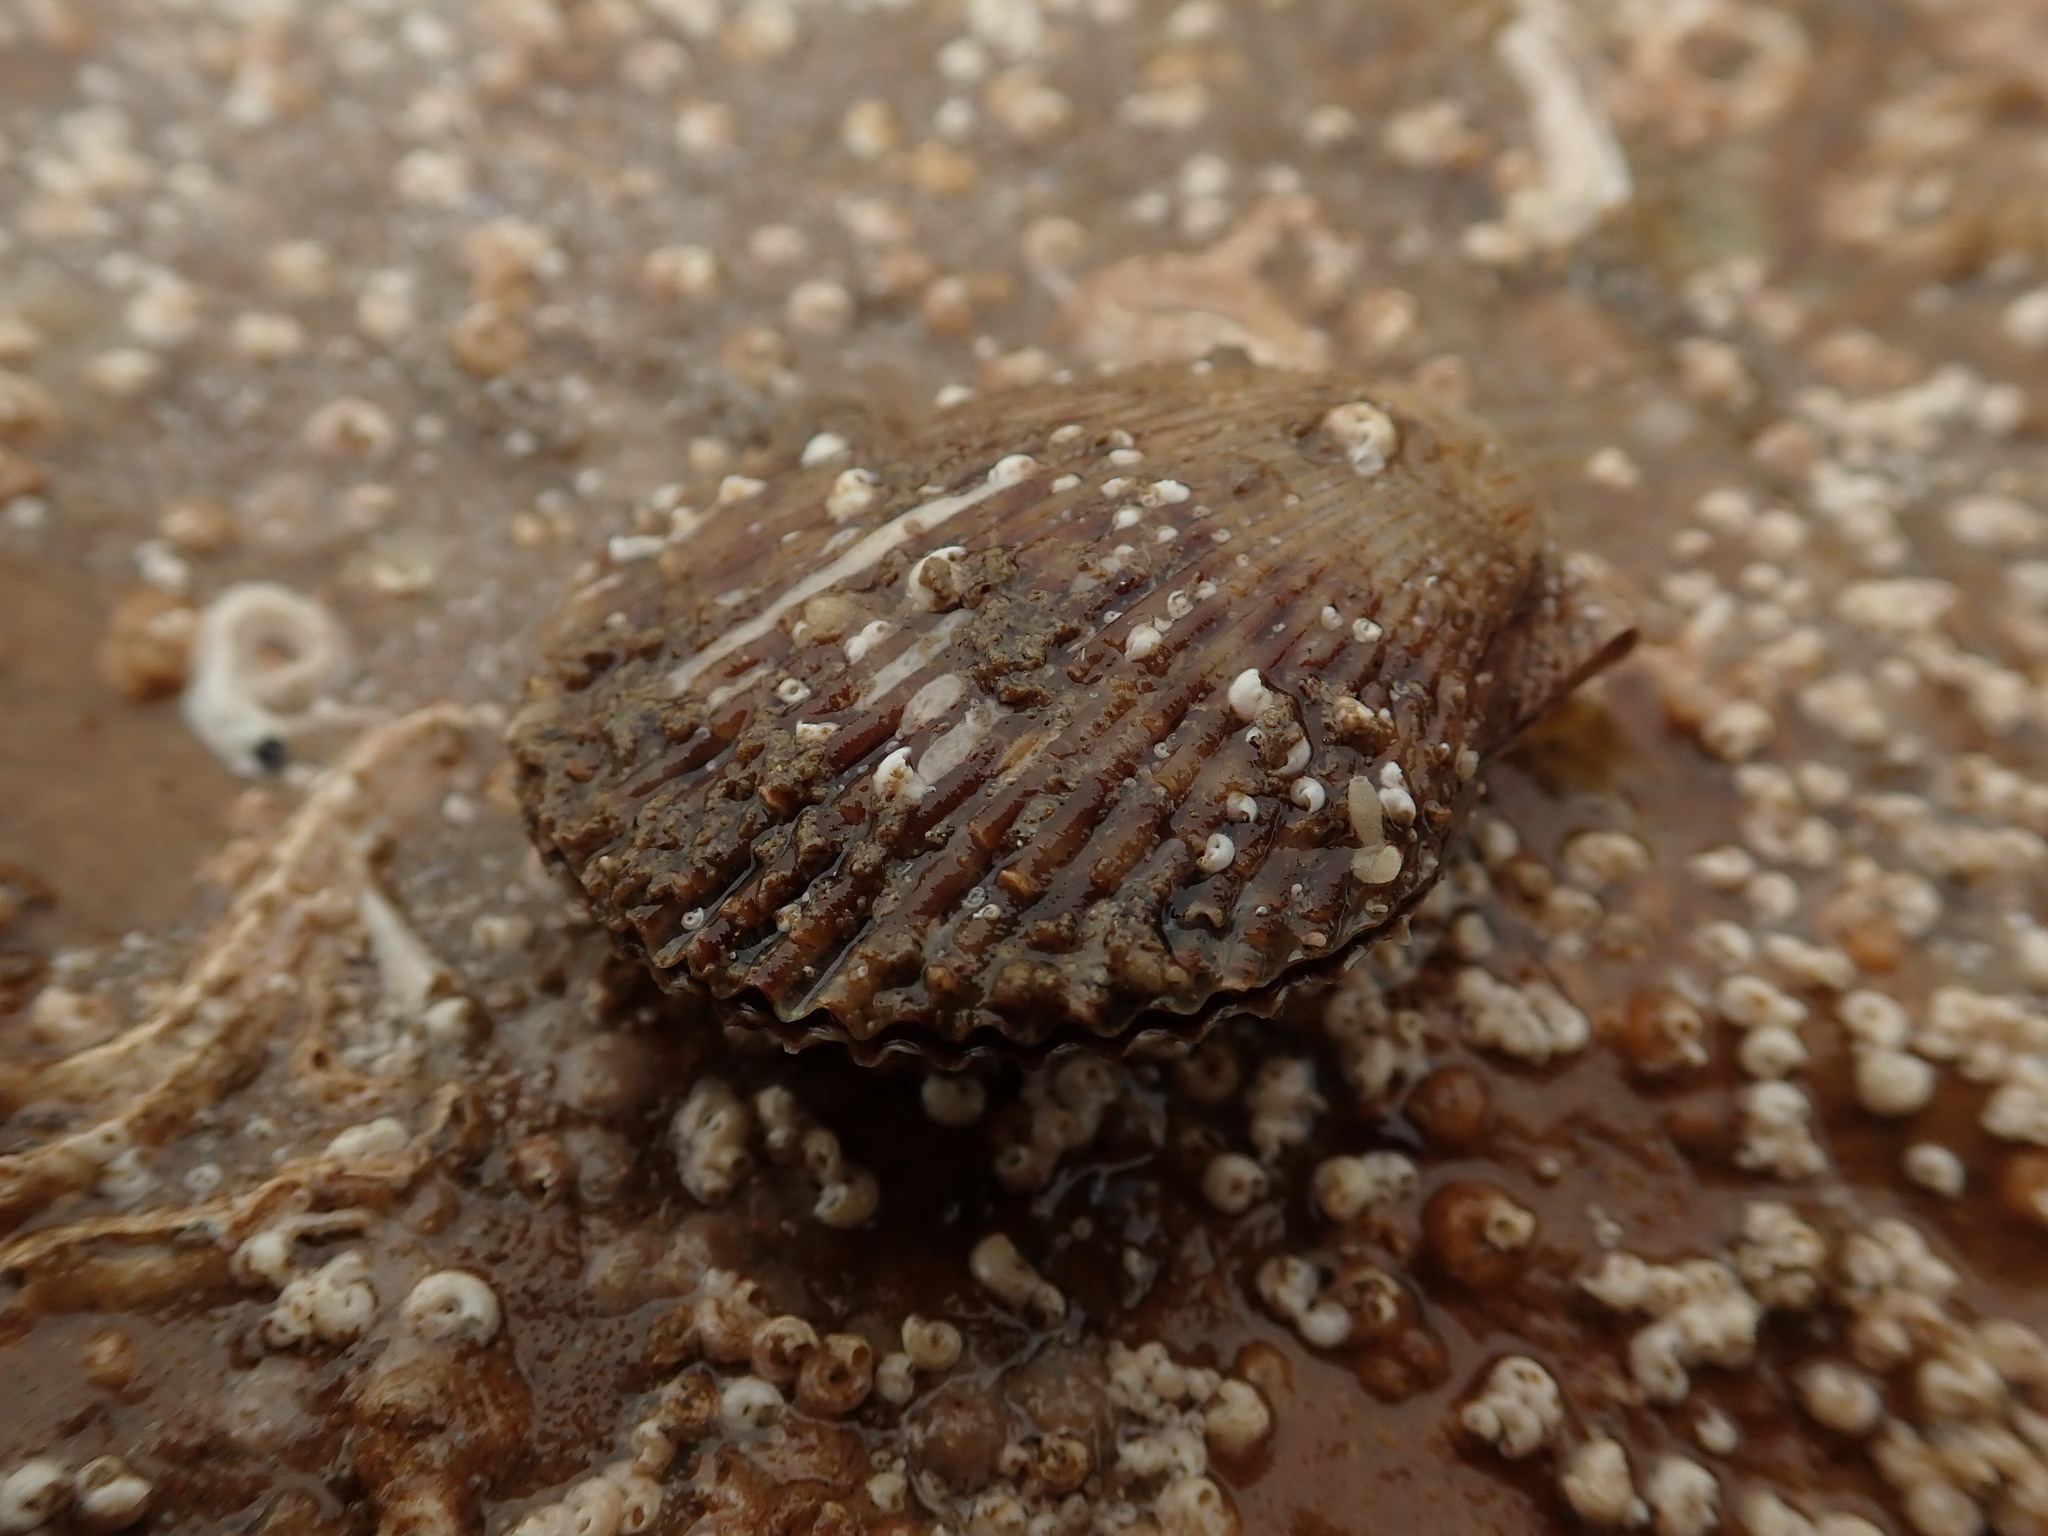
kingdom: Animalia
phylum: Mollusca
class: Bivalvia
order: Pectinida
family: Pectinidae
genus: Mimachlamys
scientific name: Mimachlamys varia
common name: Variegated scallop
